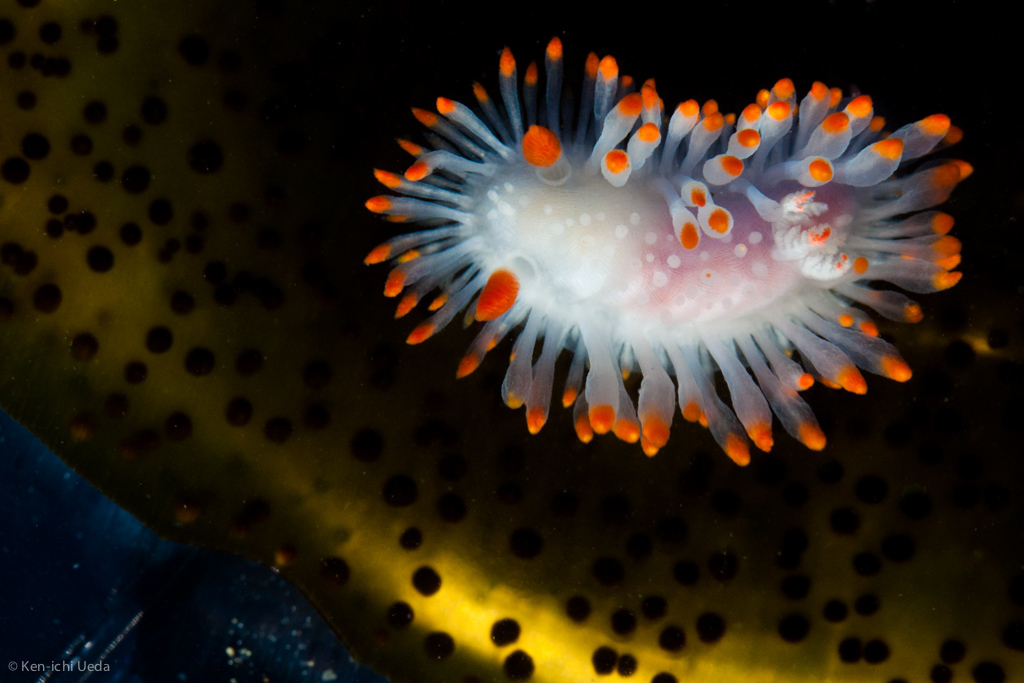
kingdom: Animalia
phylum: Mollusca
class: Gastropoda
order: Nudibranchia
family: Polyceridae
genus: Limacia
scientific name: Limacia cockerelli
